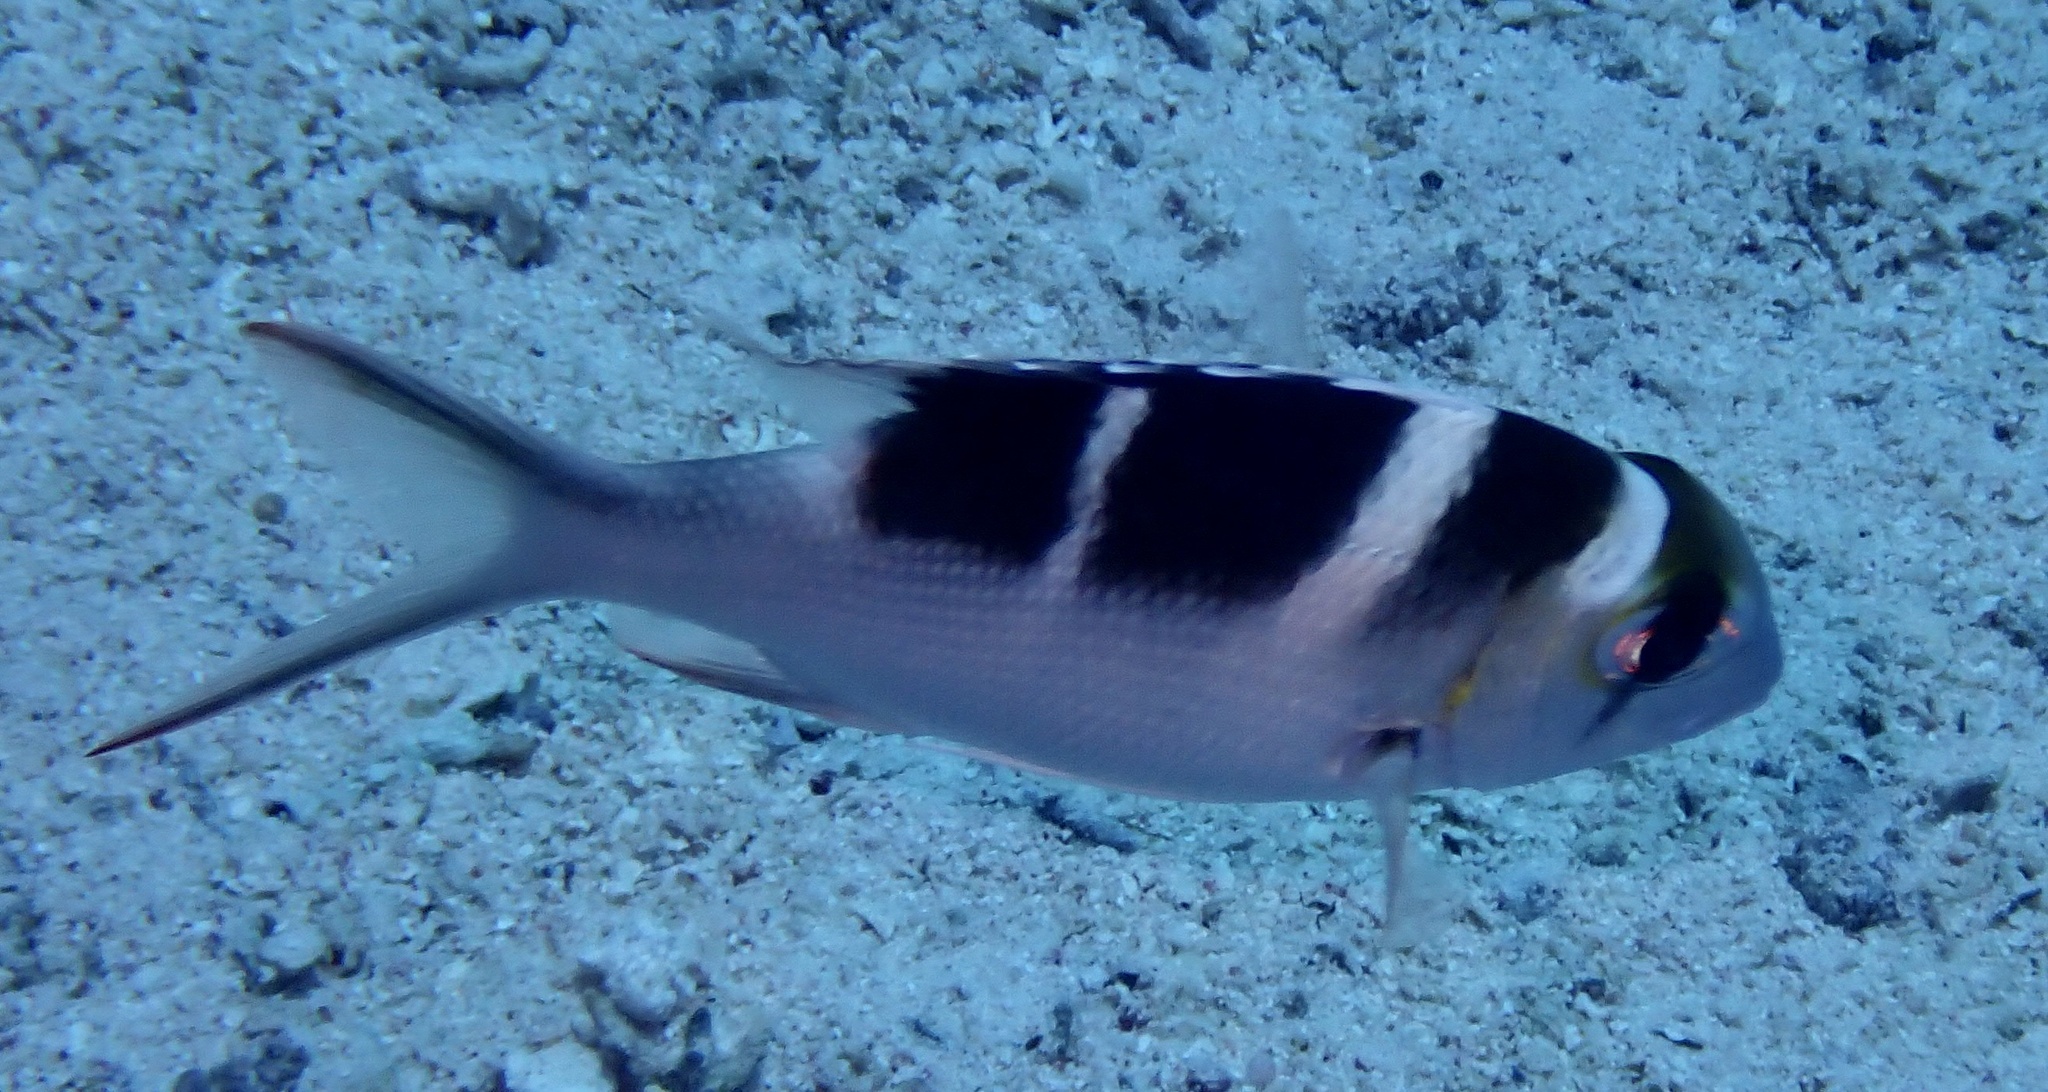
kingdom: Animalia
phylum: Chordata
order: Perciformes
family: Lethrinidae
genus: Monotaxis
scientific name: Monotaxis grandoculis
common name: Bigeye emperor
